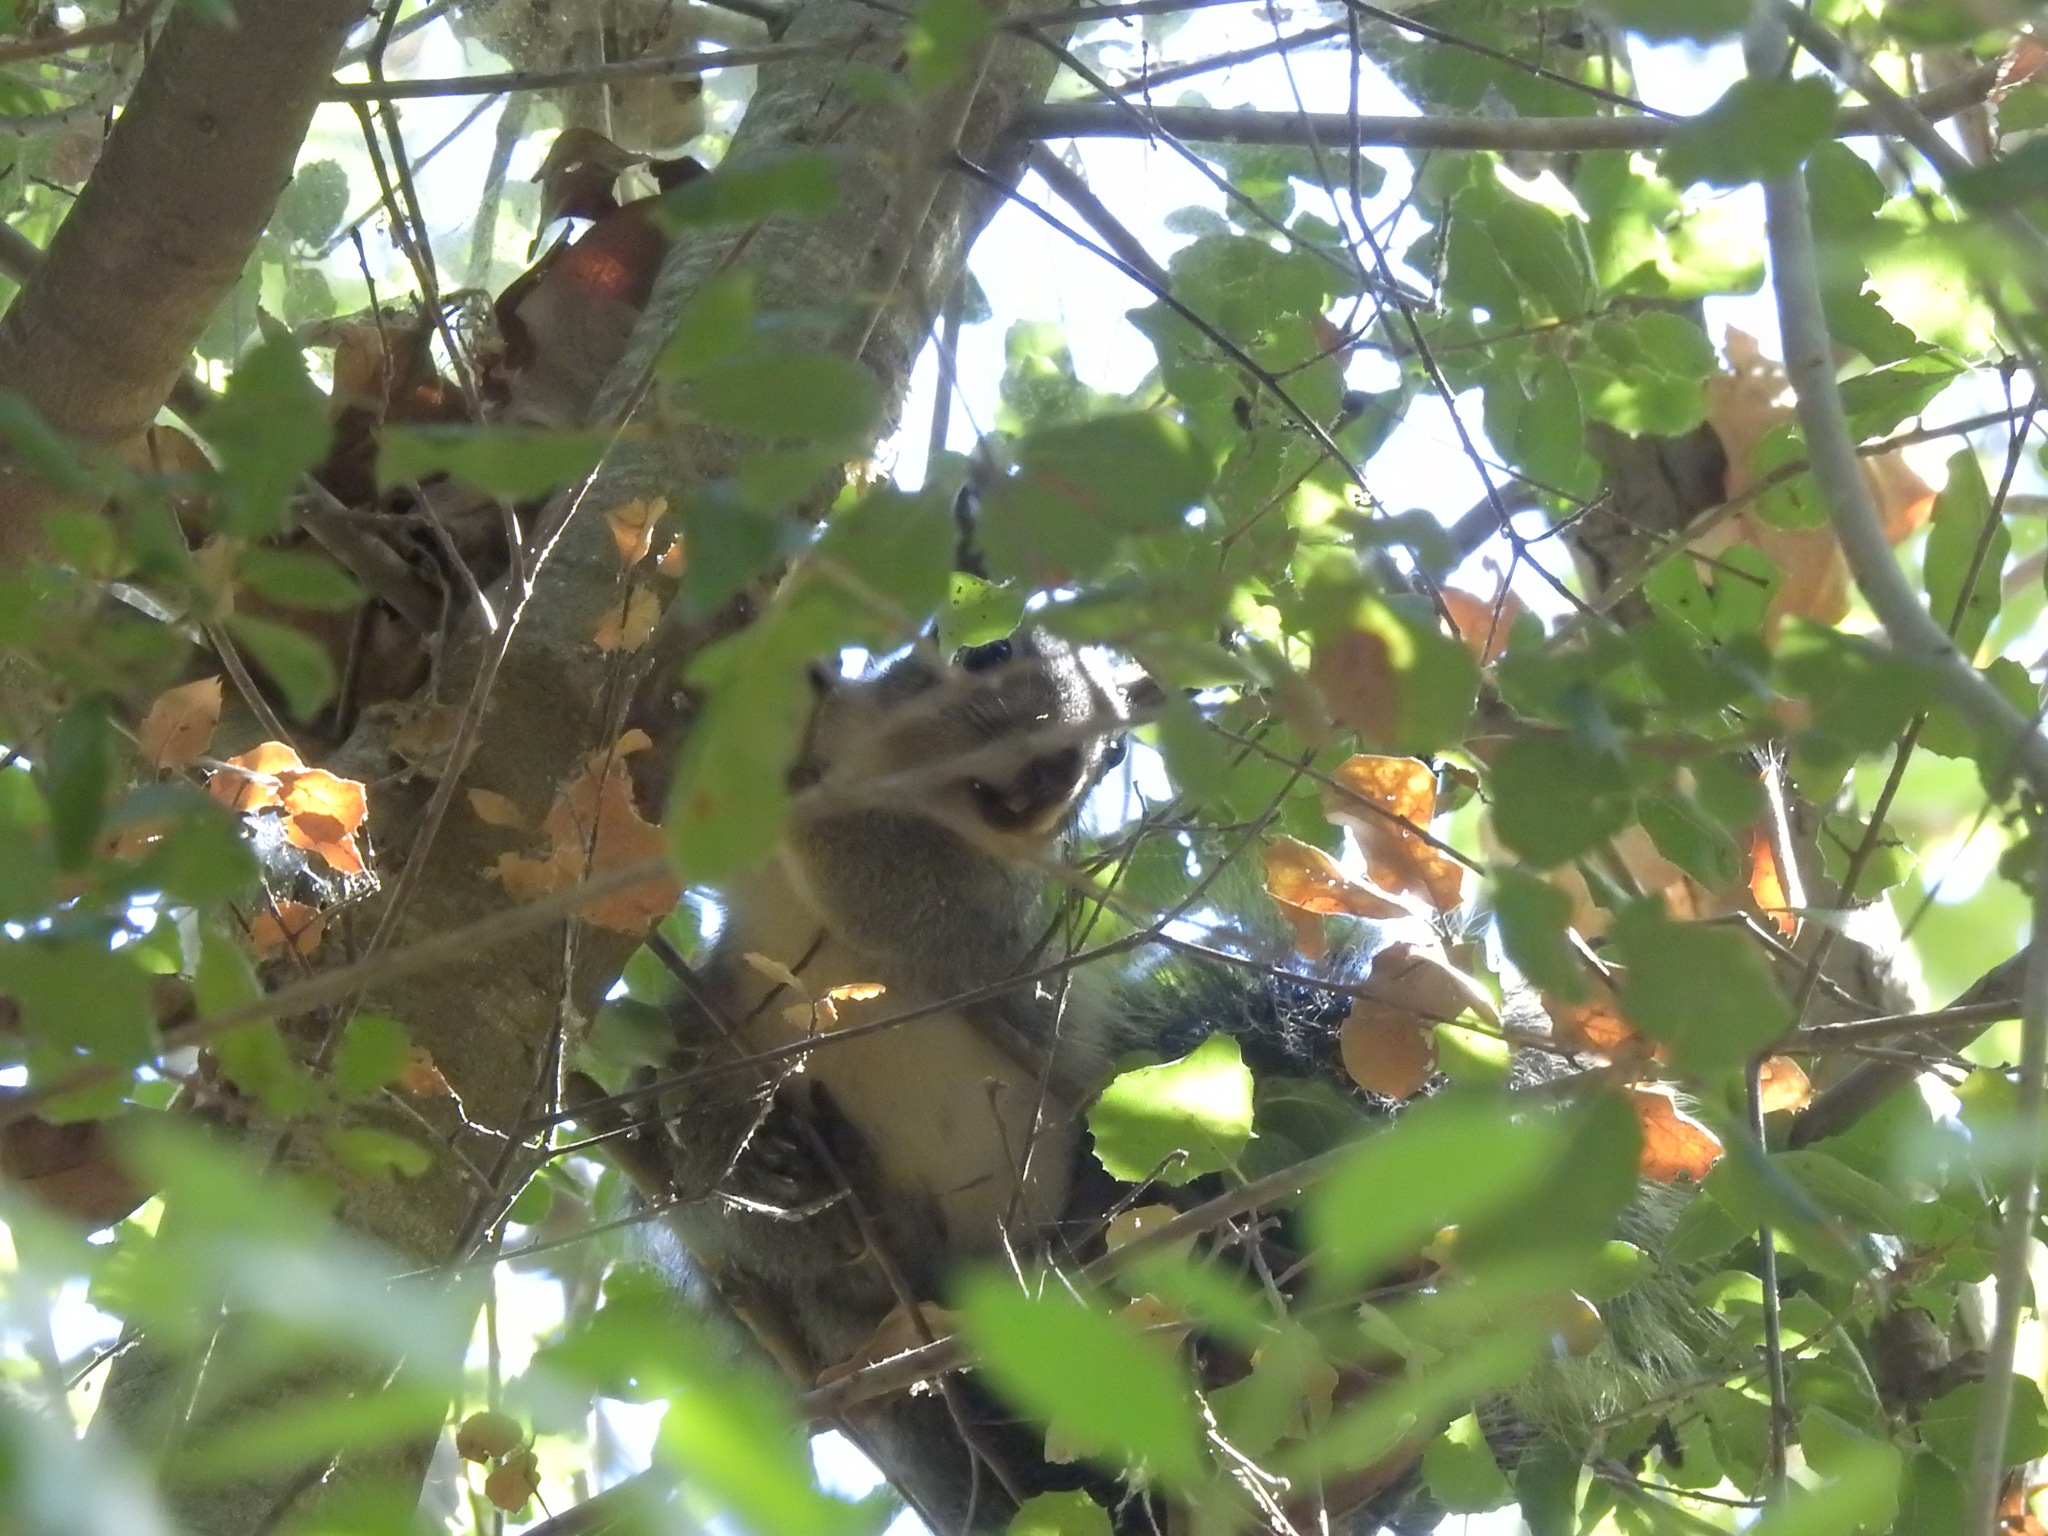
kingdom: Animalia
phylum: Chordata
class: Mammalia
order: Rodentia
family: Sciuridae
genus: Sciurus
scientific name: Sciurus griseus
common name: Western gray squirrel
